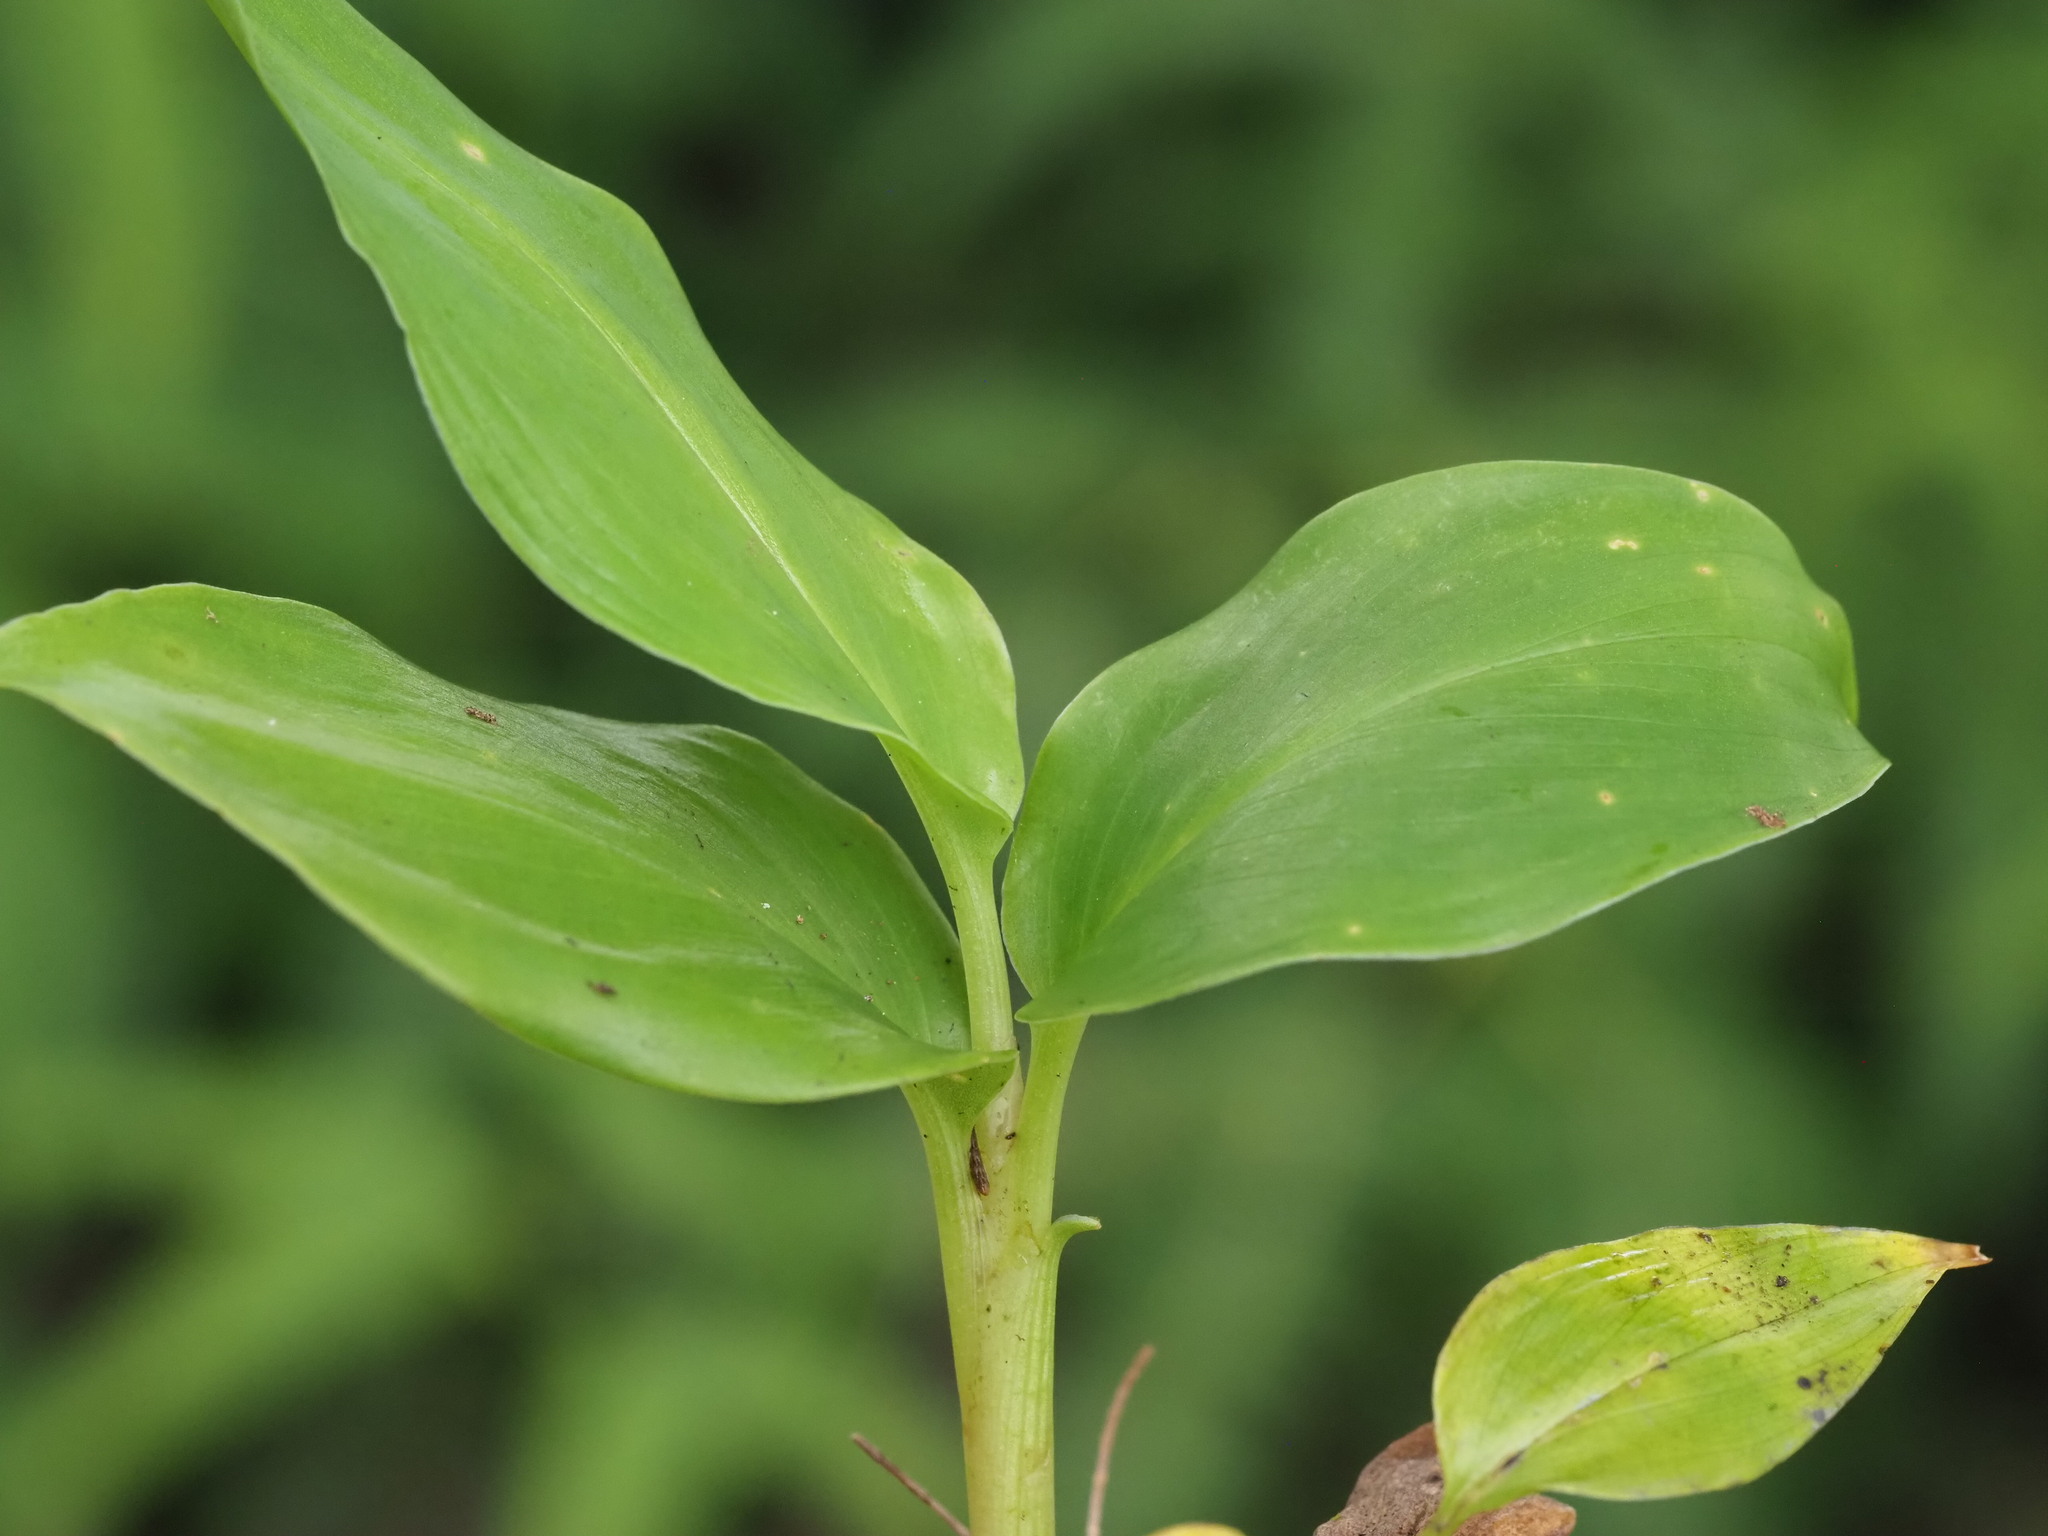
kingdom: Plantae
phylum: Tracheophyta
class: Liliopsida
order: Zingiberales
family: Zingiberaceae
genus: Hedychium
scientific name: Hedychium gardnerianum
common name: Himalayan ginger
